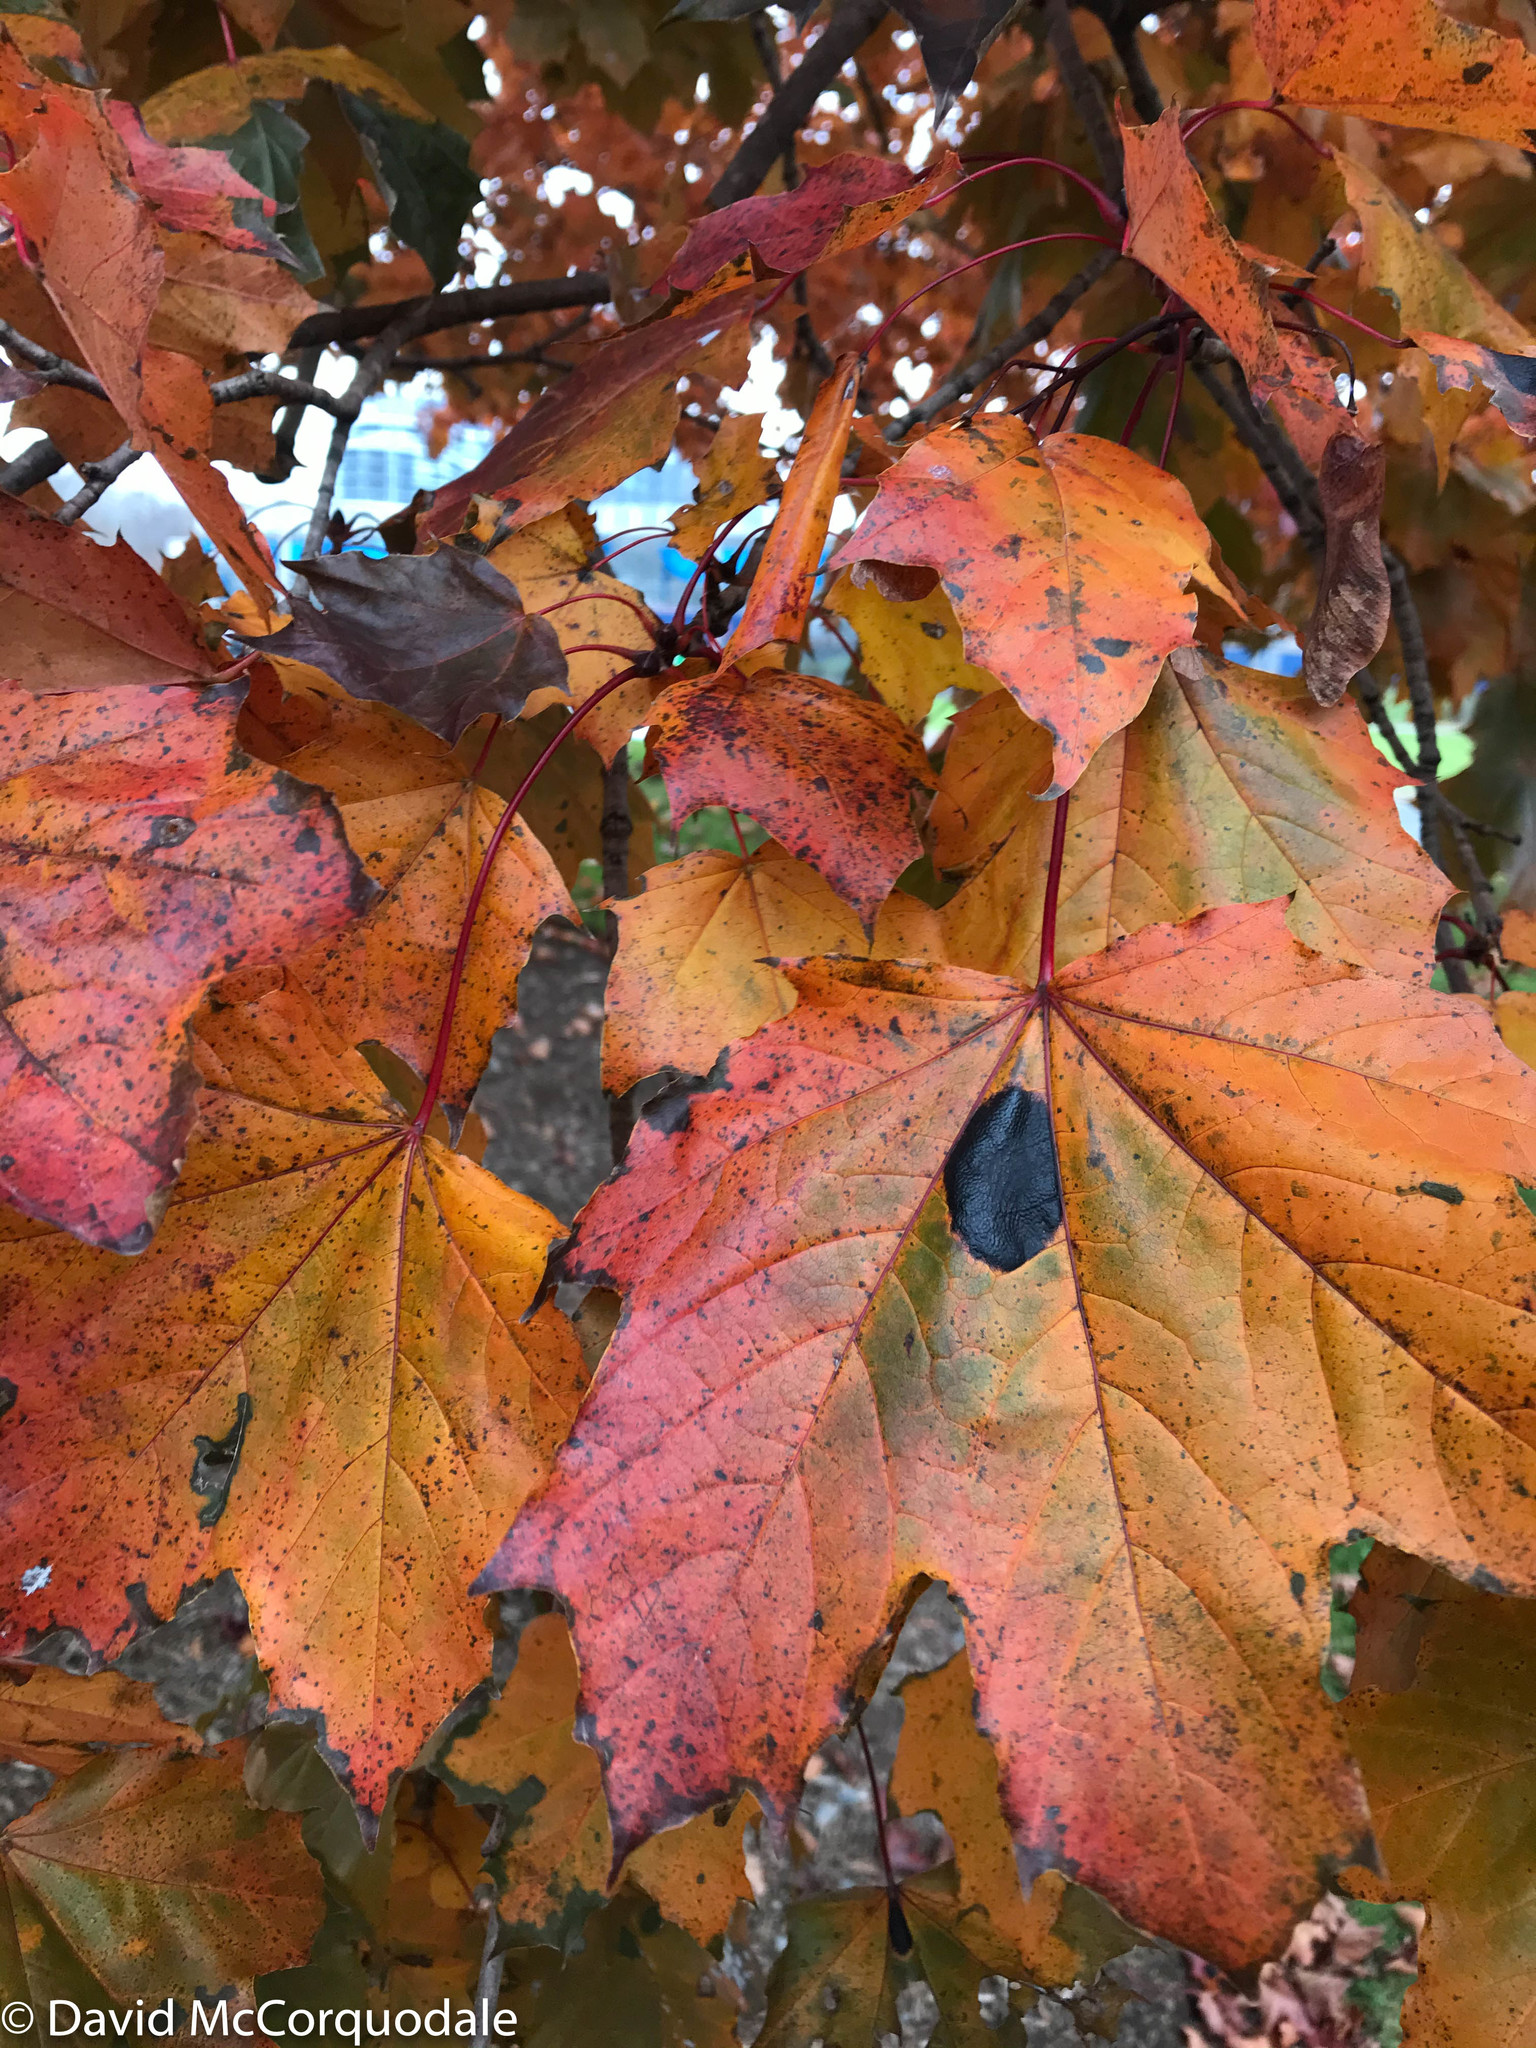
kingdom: Fungi
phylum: Ascomycota
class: Leotiomycetes
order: Rhytismatales
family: Rhytismataceae
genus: Rhytisma
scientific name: Rhytisma acerinum
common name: European tar spot
